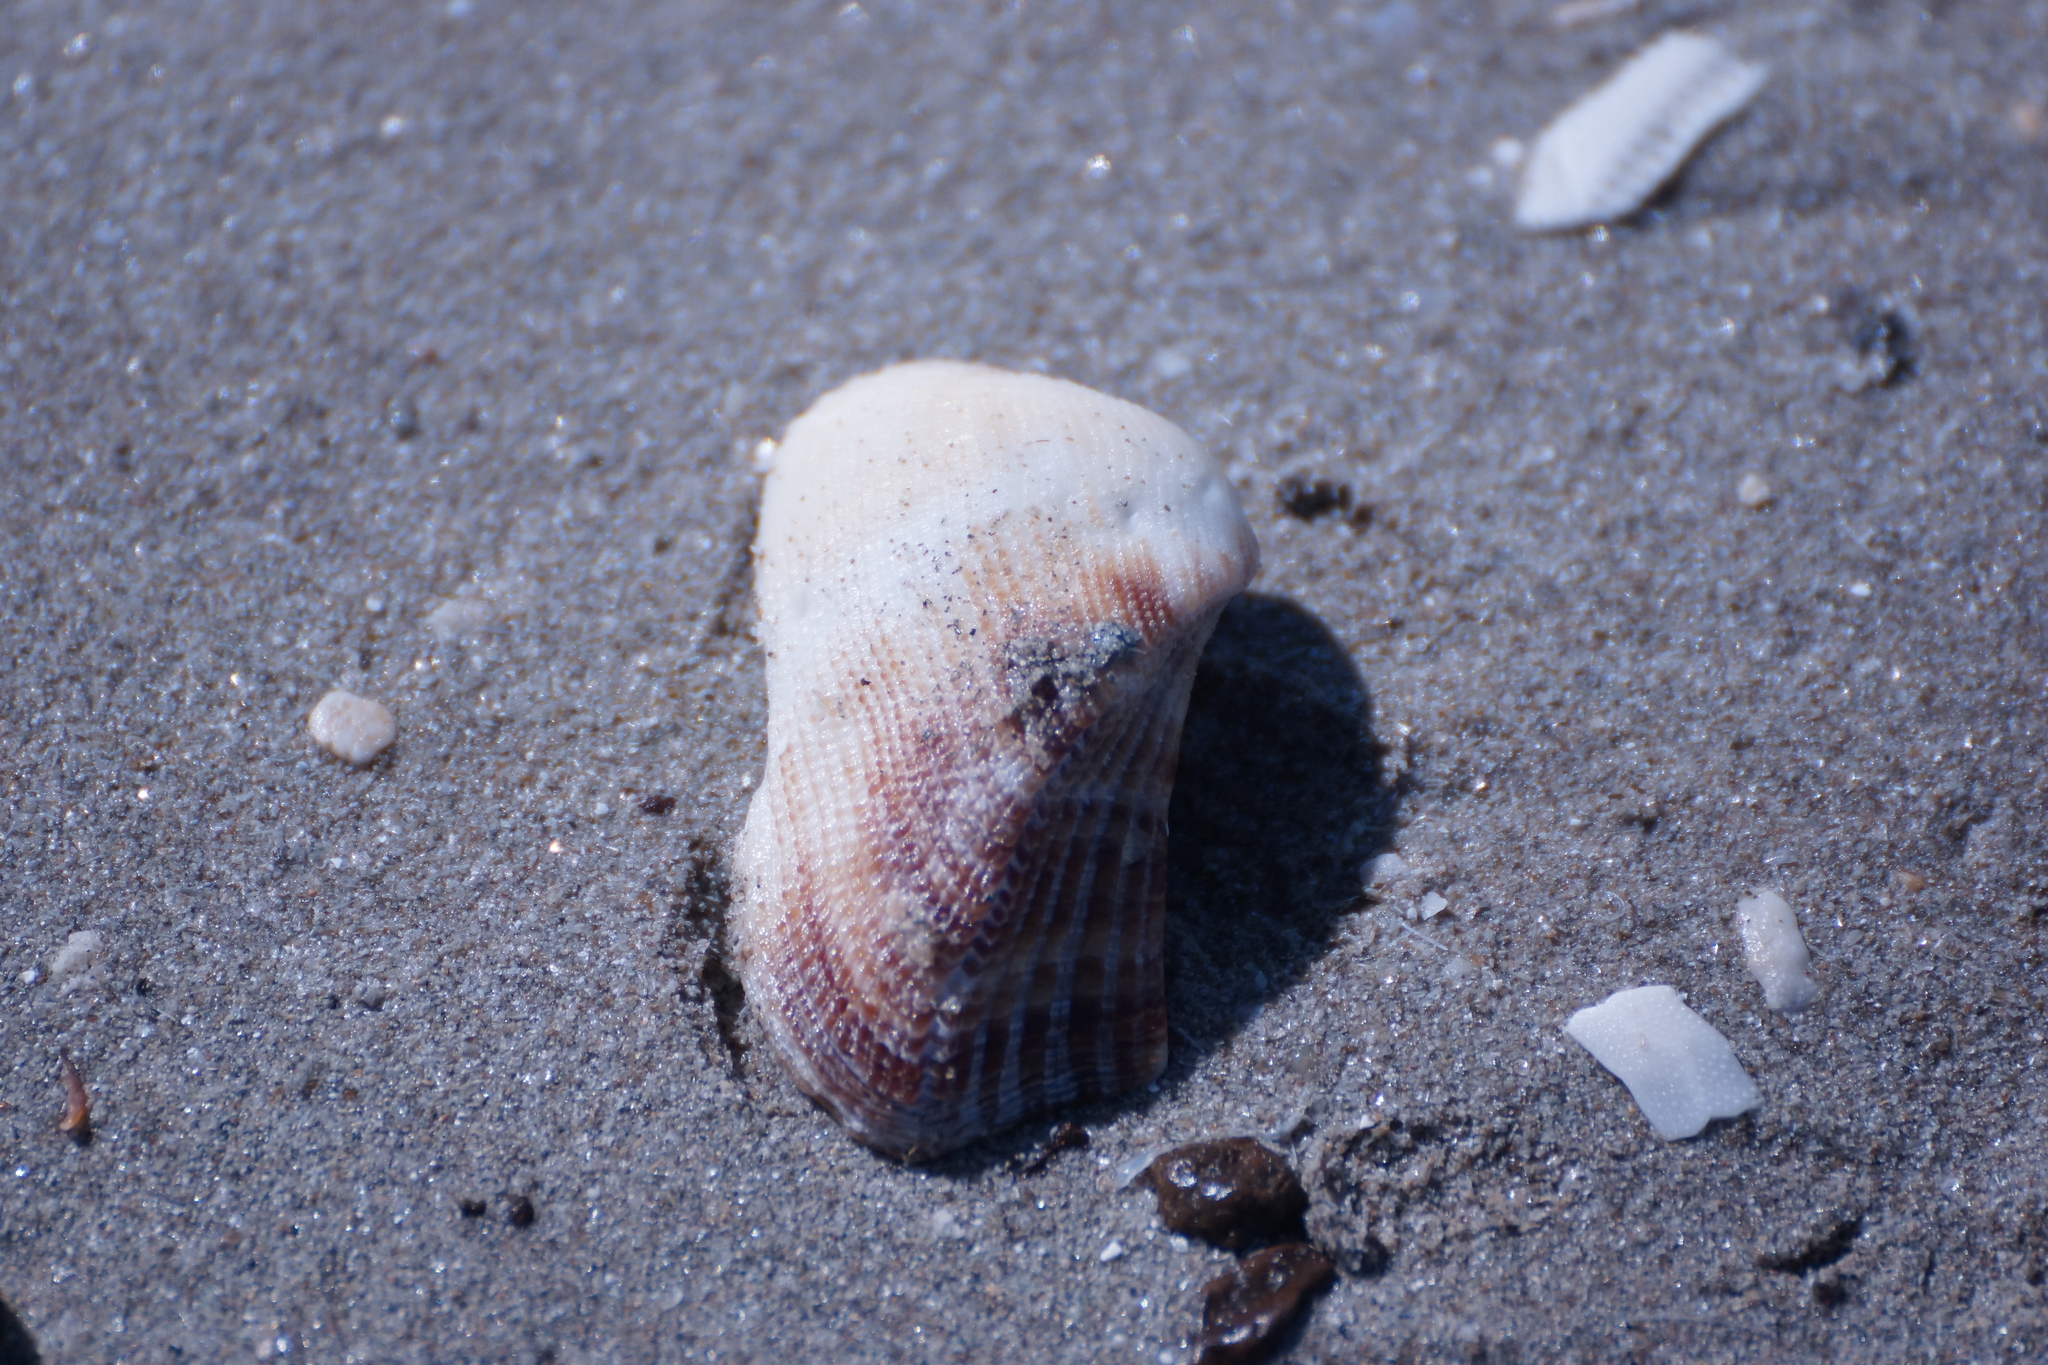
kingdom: Animalia
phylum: Mollusca
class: Bivalvia
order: Arcida
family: Arcidae
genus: Lamarcka
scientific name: Lamarcka avellana
